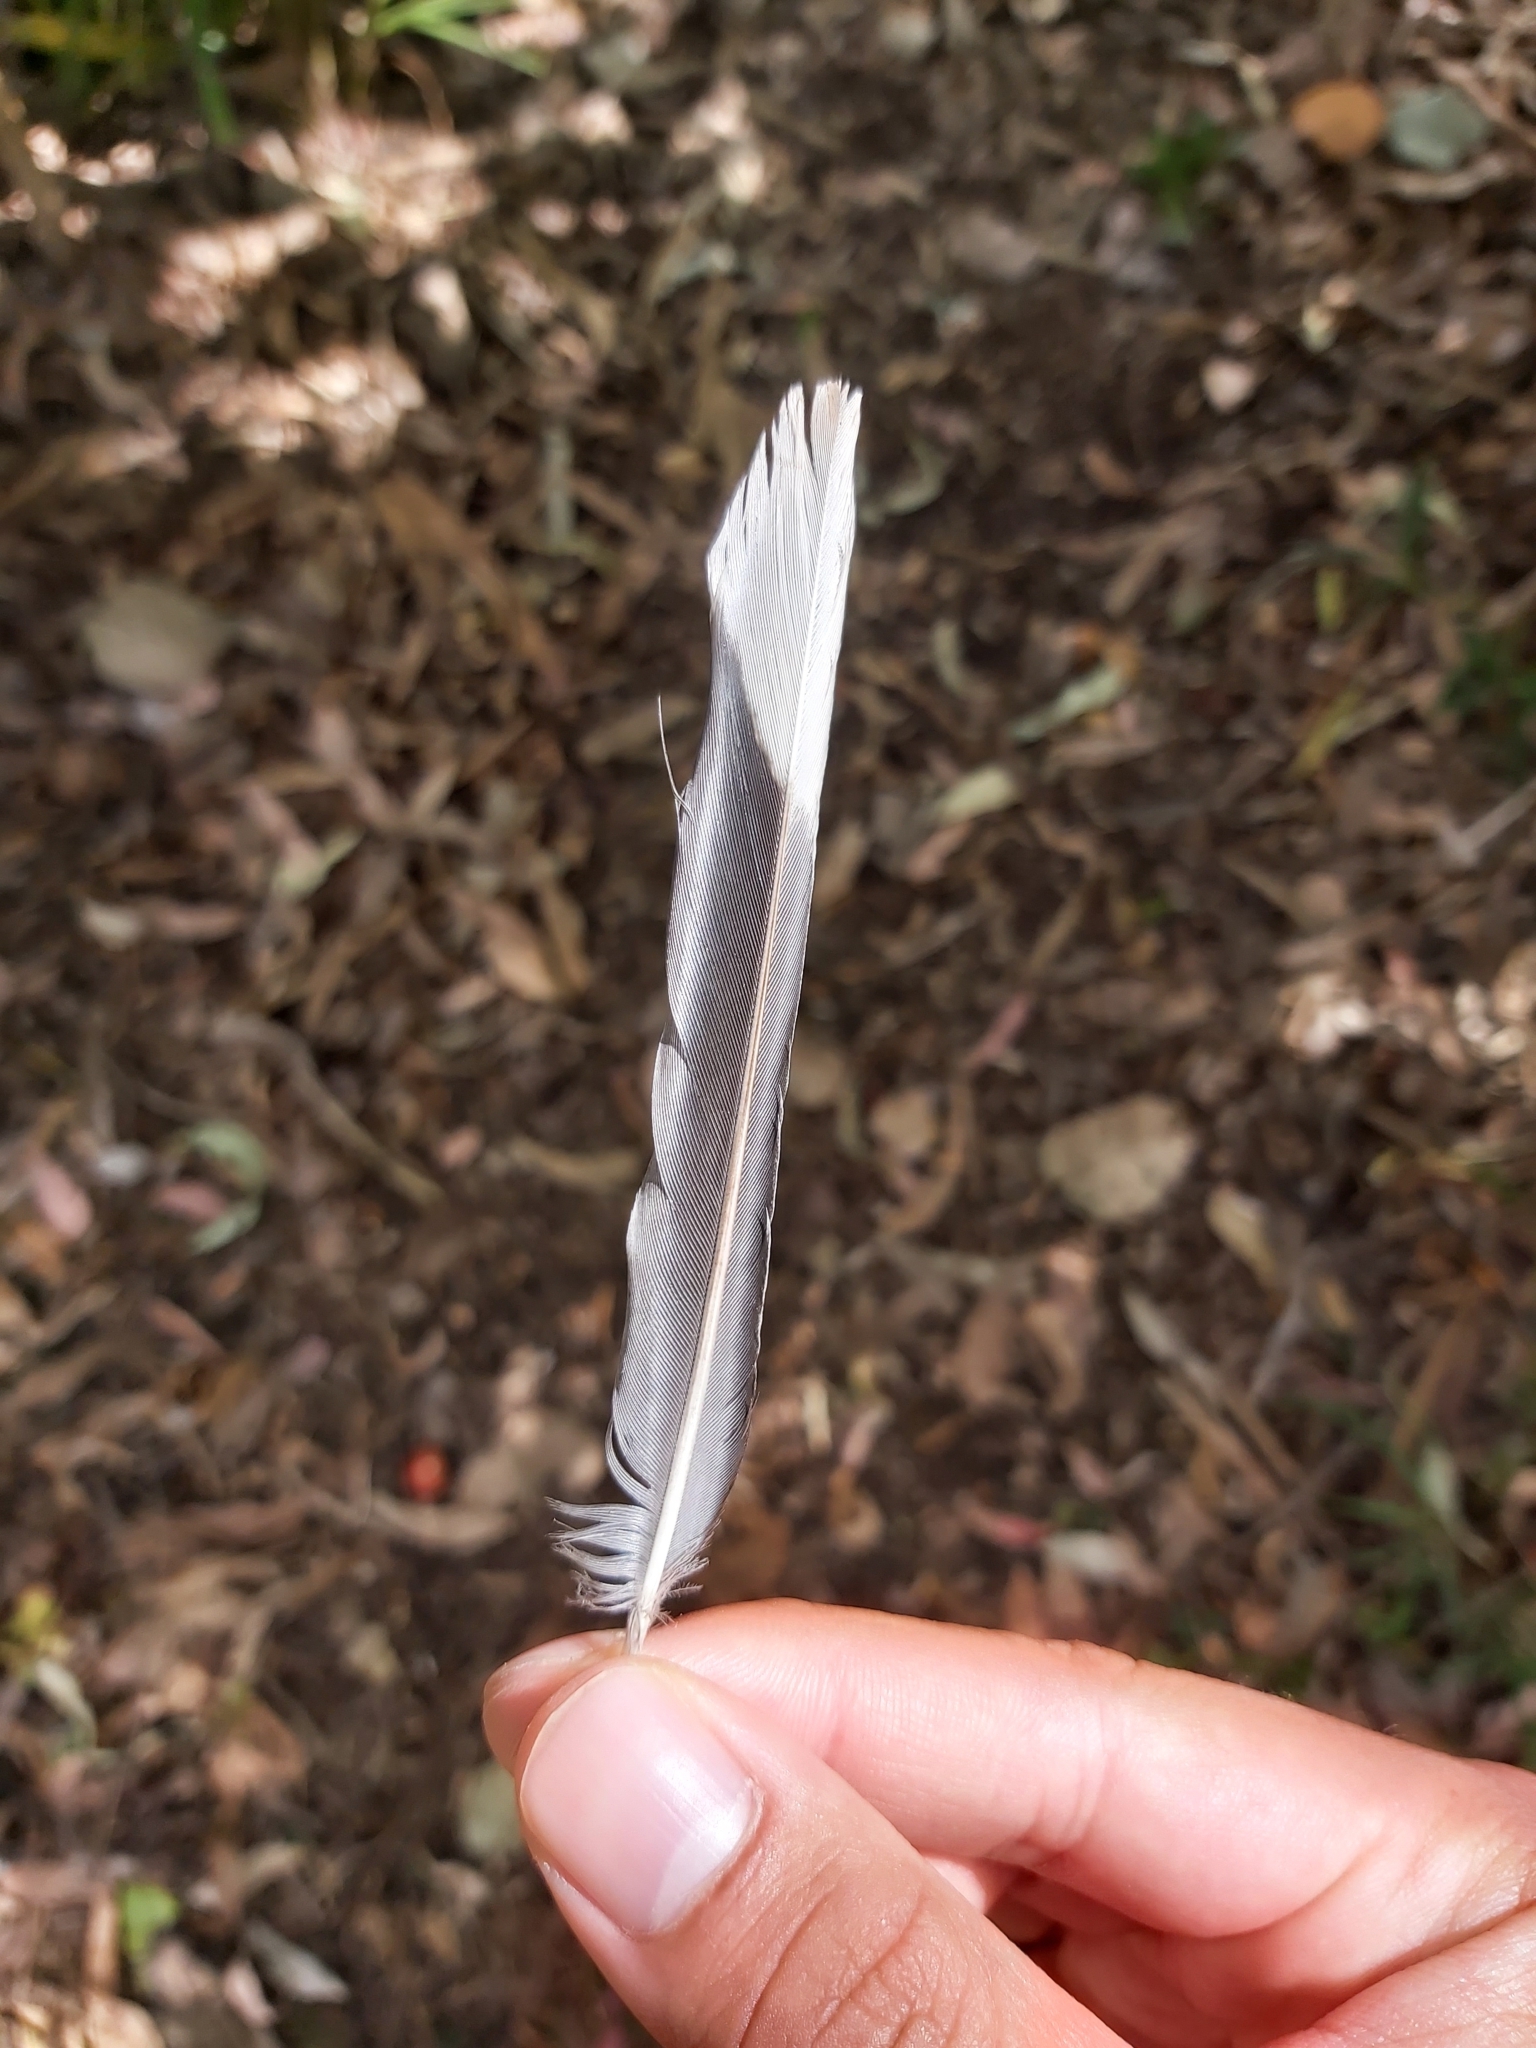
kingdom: Animalia
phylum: Chordata
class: Aves
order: Passeriformes
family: Oriolidae
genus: Sphecotheres
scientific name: Sphecotheres vieilloti
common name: Australasian figbird
